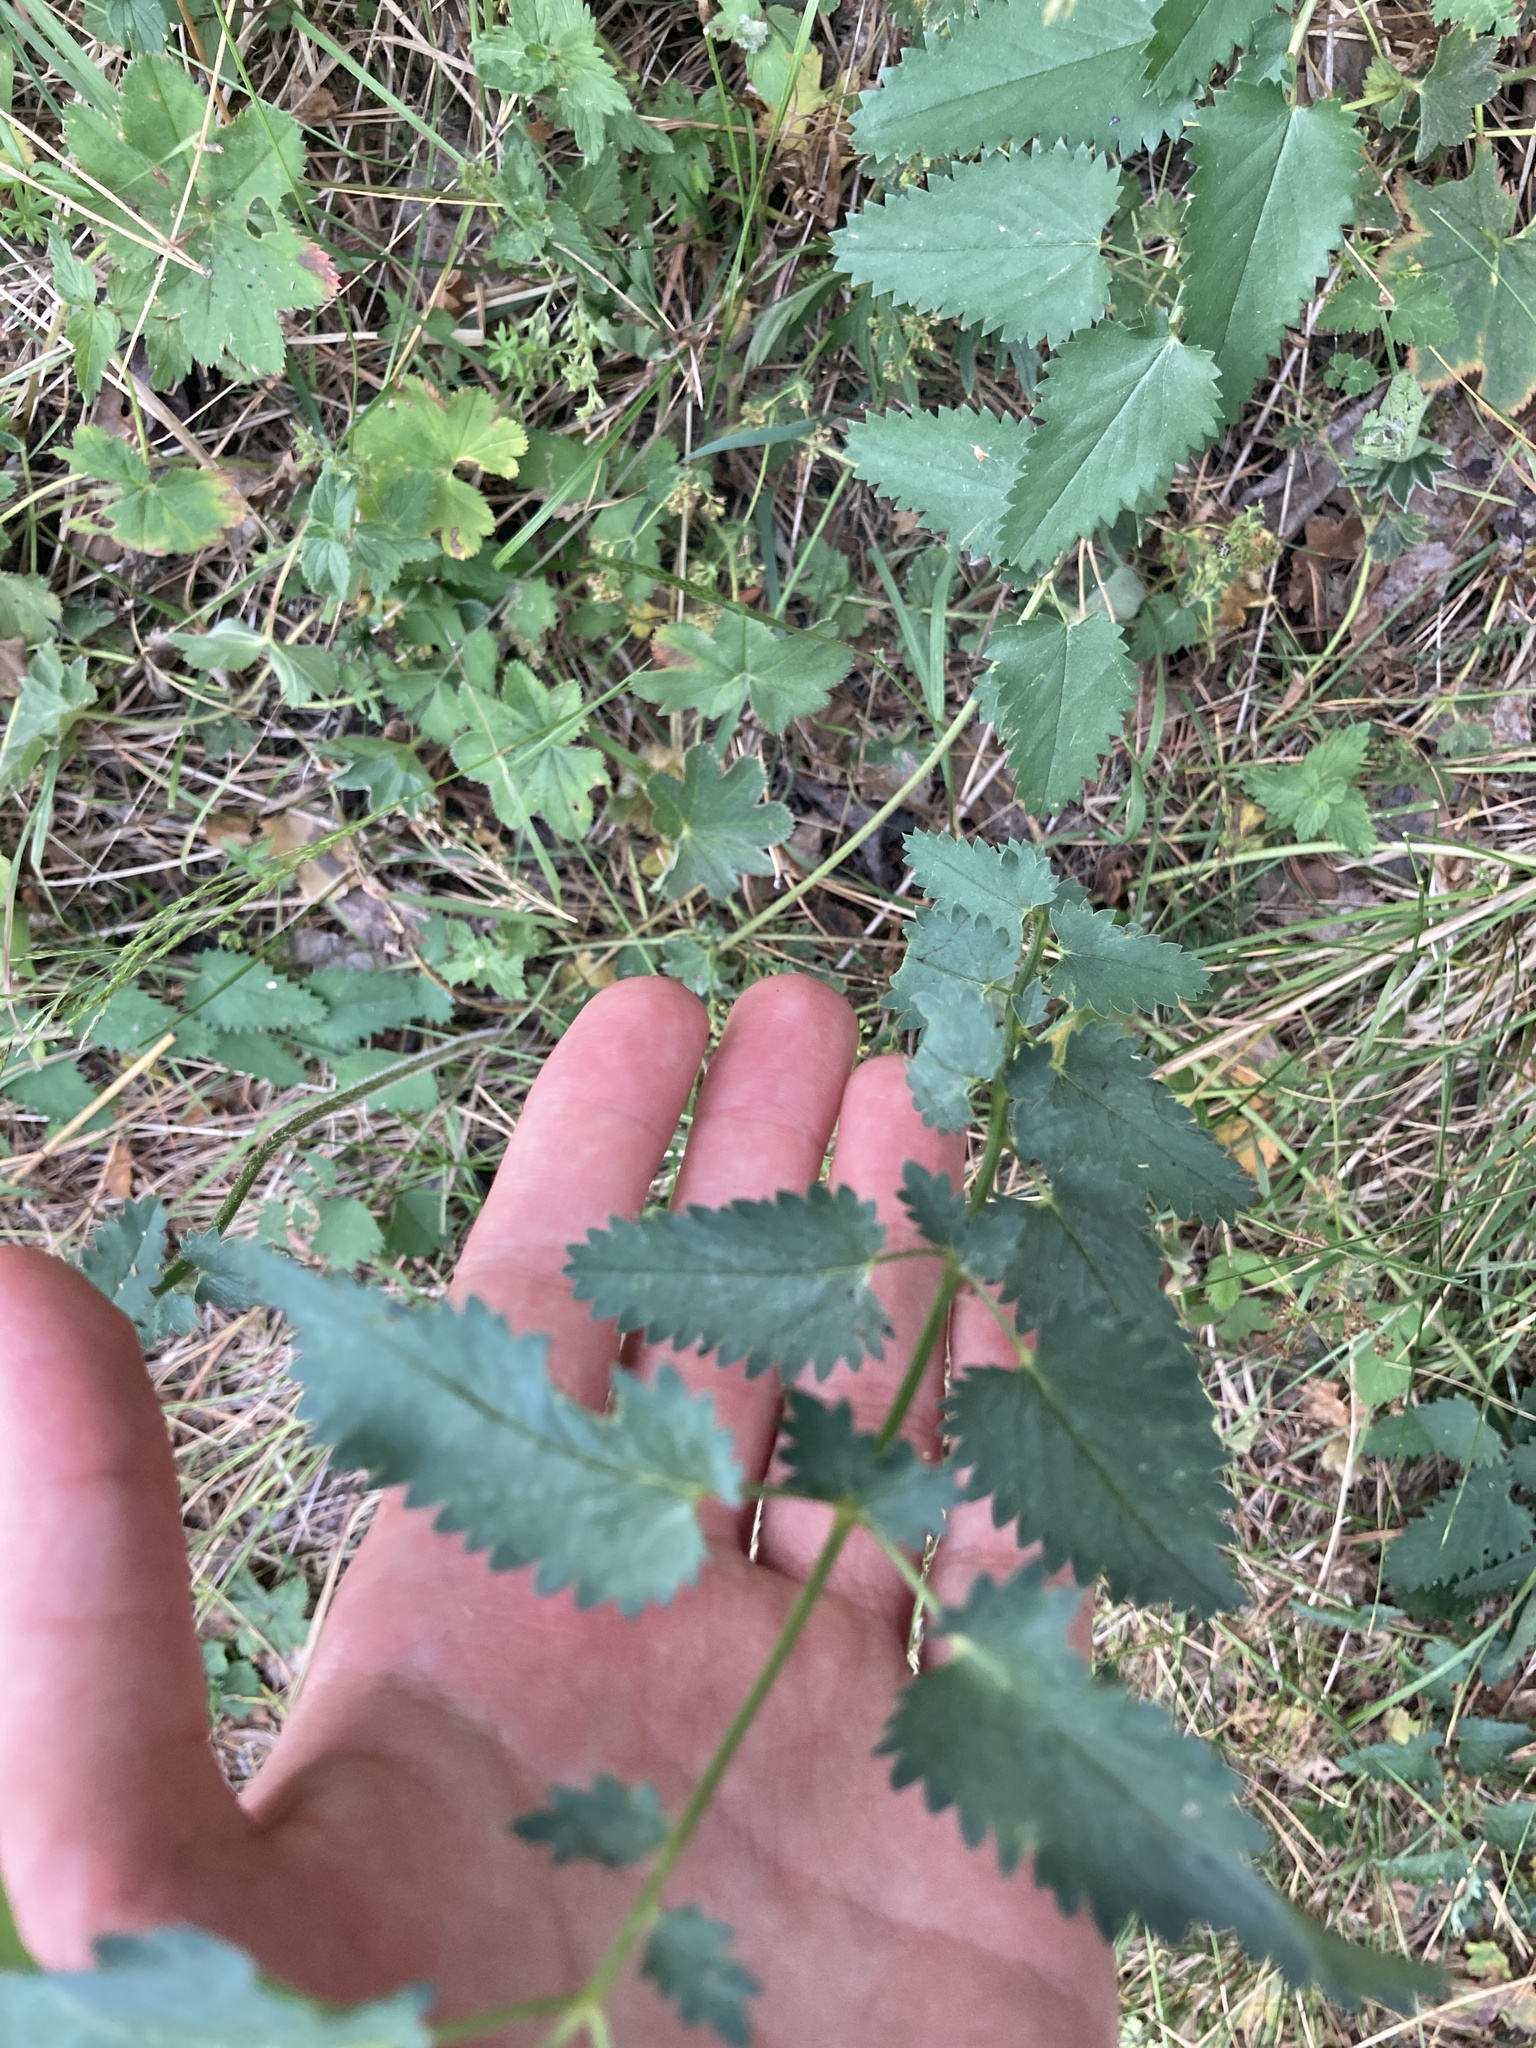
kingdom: Plantae
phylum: Tracheophyta
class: Magnoliopsida
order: Rosales
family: Rosaceae
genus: Sanguisorba
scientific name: Sanguisorba officinalis
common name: Great burnet
